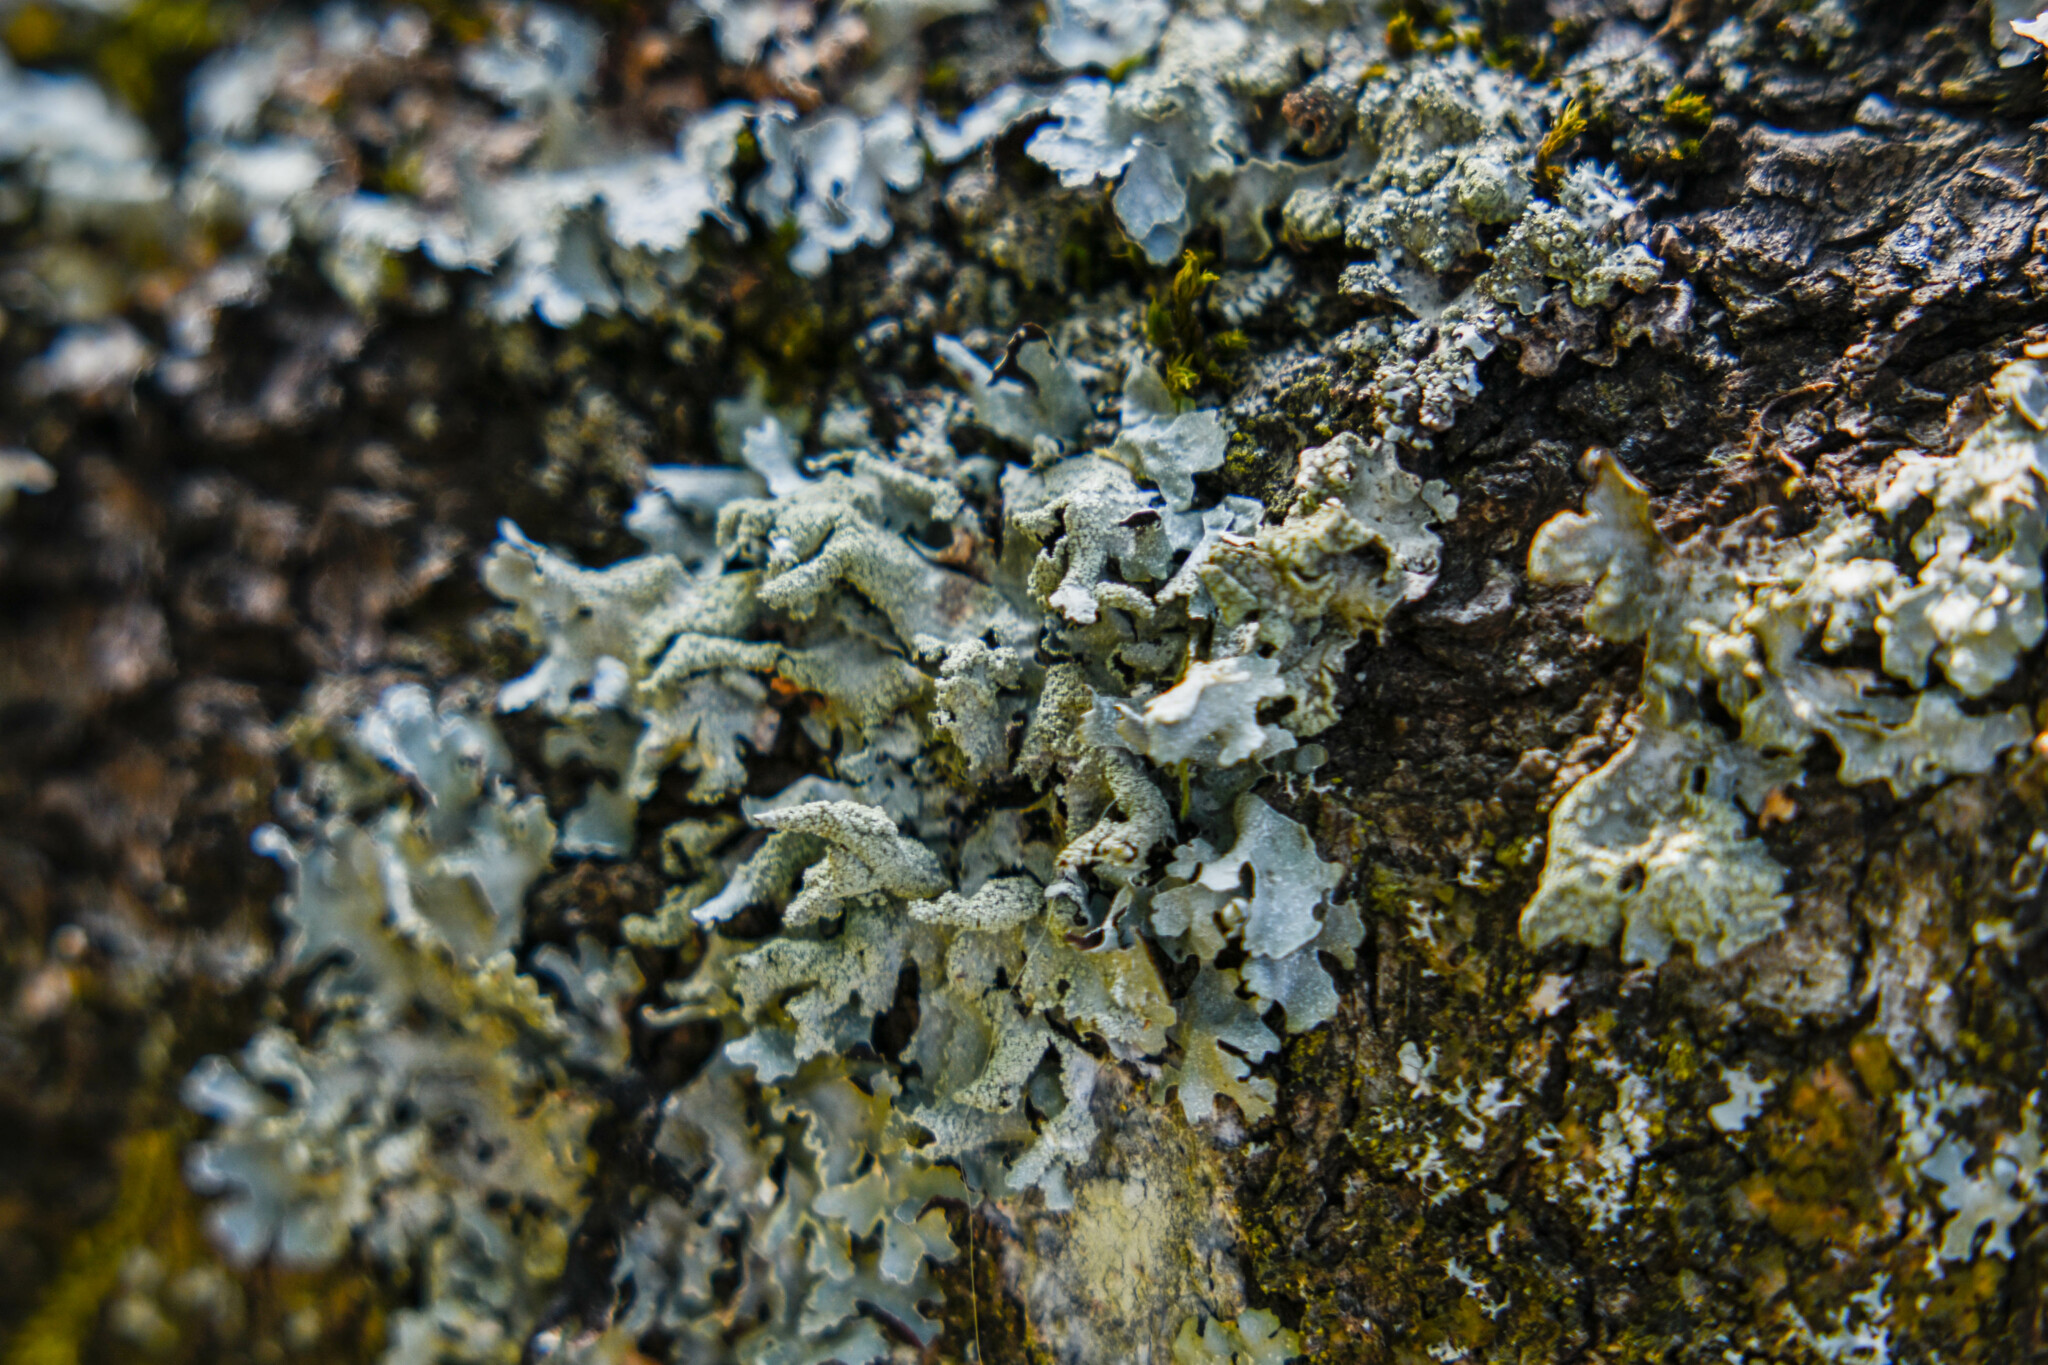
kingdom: Fungi
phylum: Ascomycota
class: Lecanoromycetes
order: Lecanorales
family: Parmeliaceae
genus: Parmelia
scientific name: Parmelia submontana
